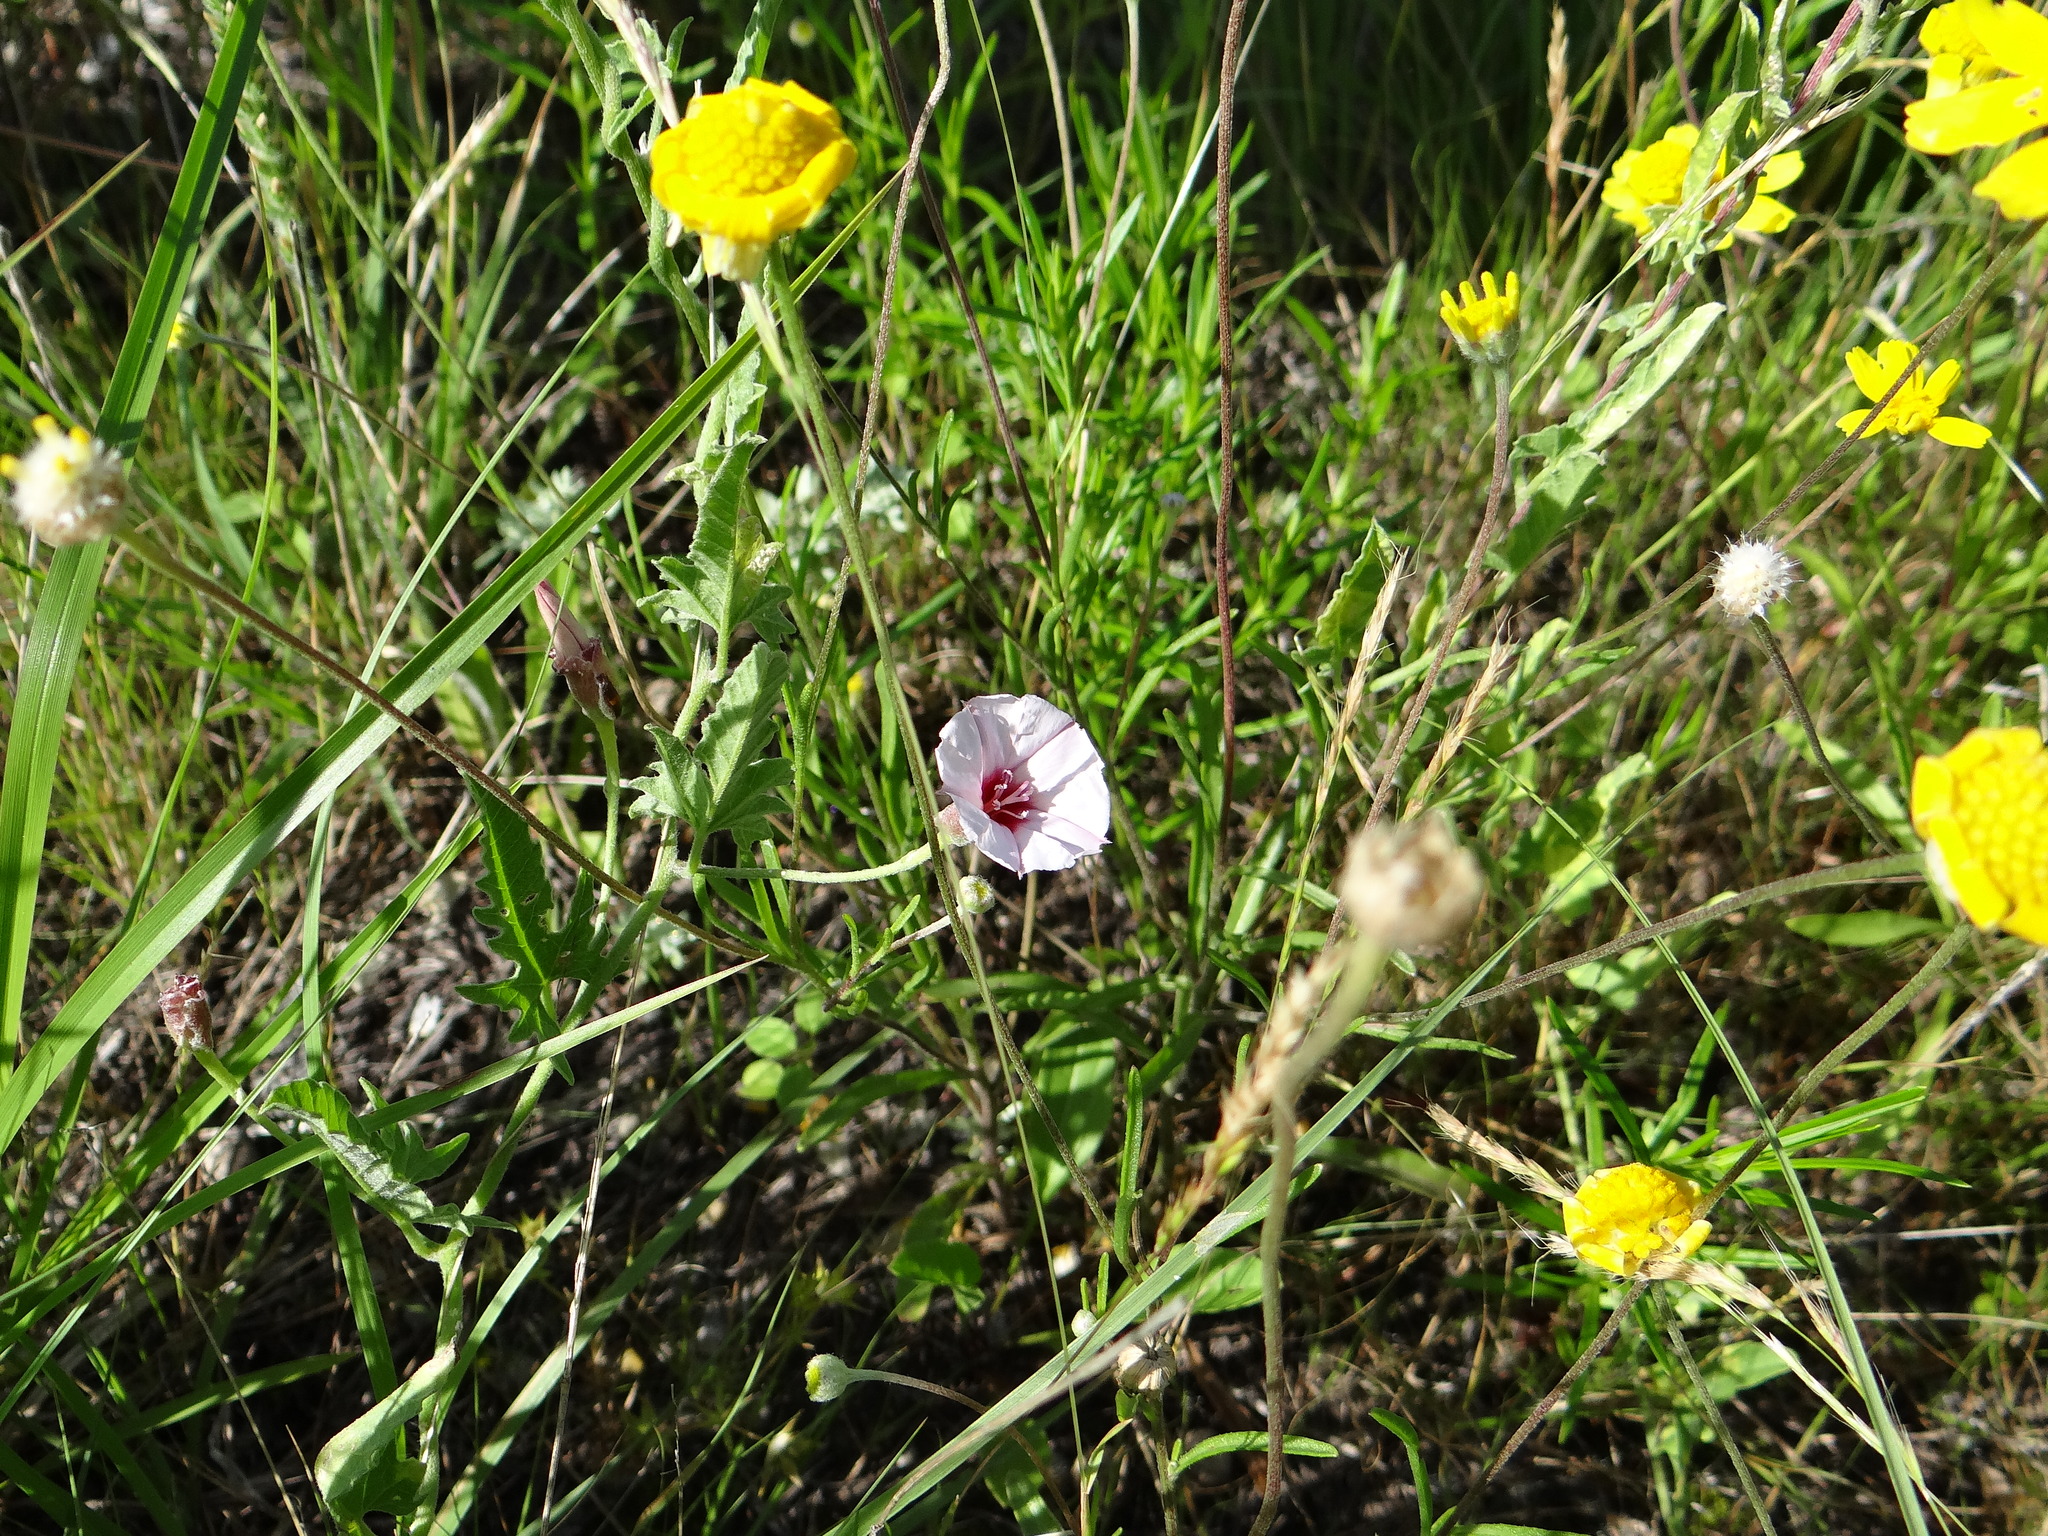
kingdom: Plantae
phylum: Tracheophyta
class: Magnoliopsida
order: Solanales
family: Convolvulaceae
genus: Convolvulus
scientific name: Convolvulus equitans
